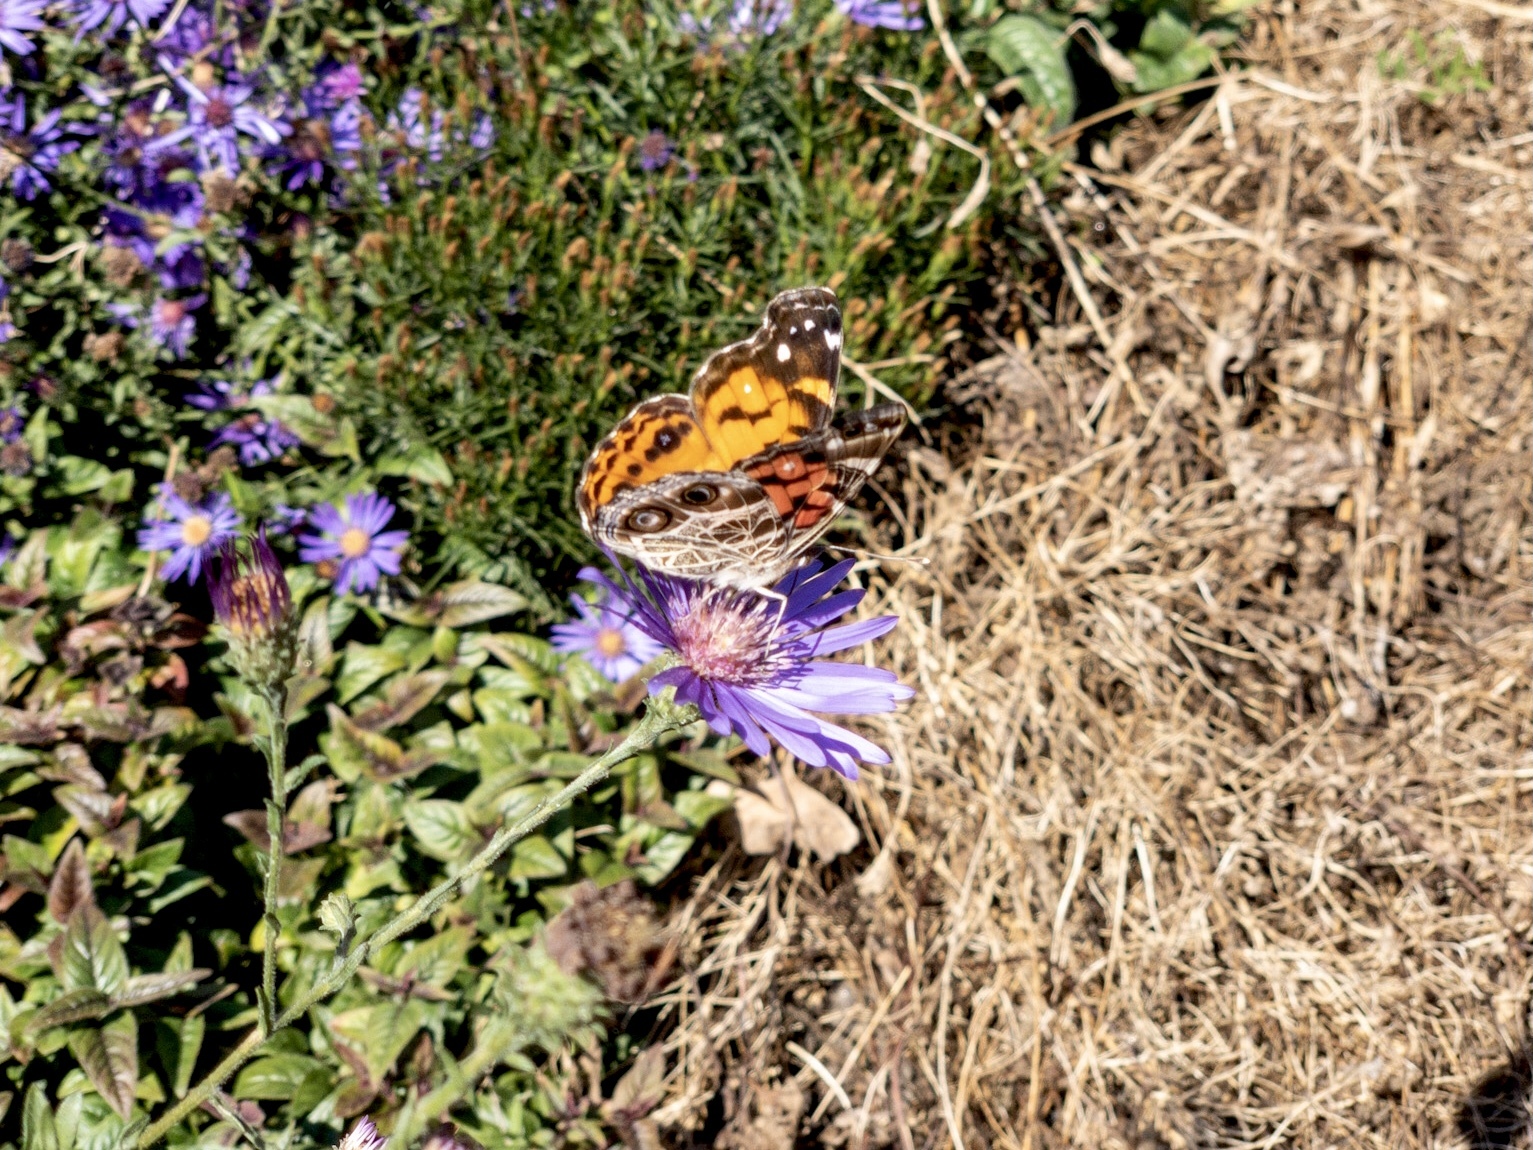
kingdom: Animalia
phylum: Arthropoda
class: Insecta
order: Lepidoptera
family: Nymphalidae
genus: Vanessa
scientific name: Vanessa virginiensis
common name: American lady
